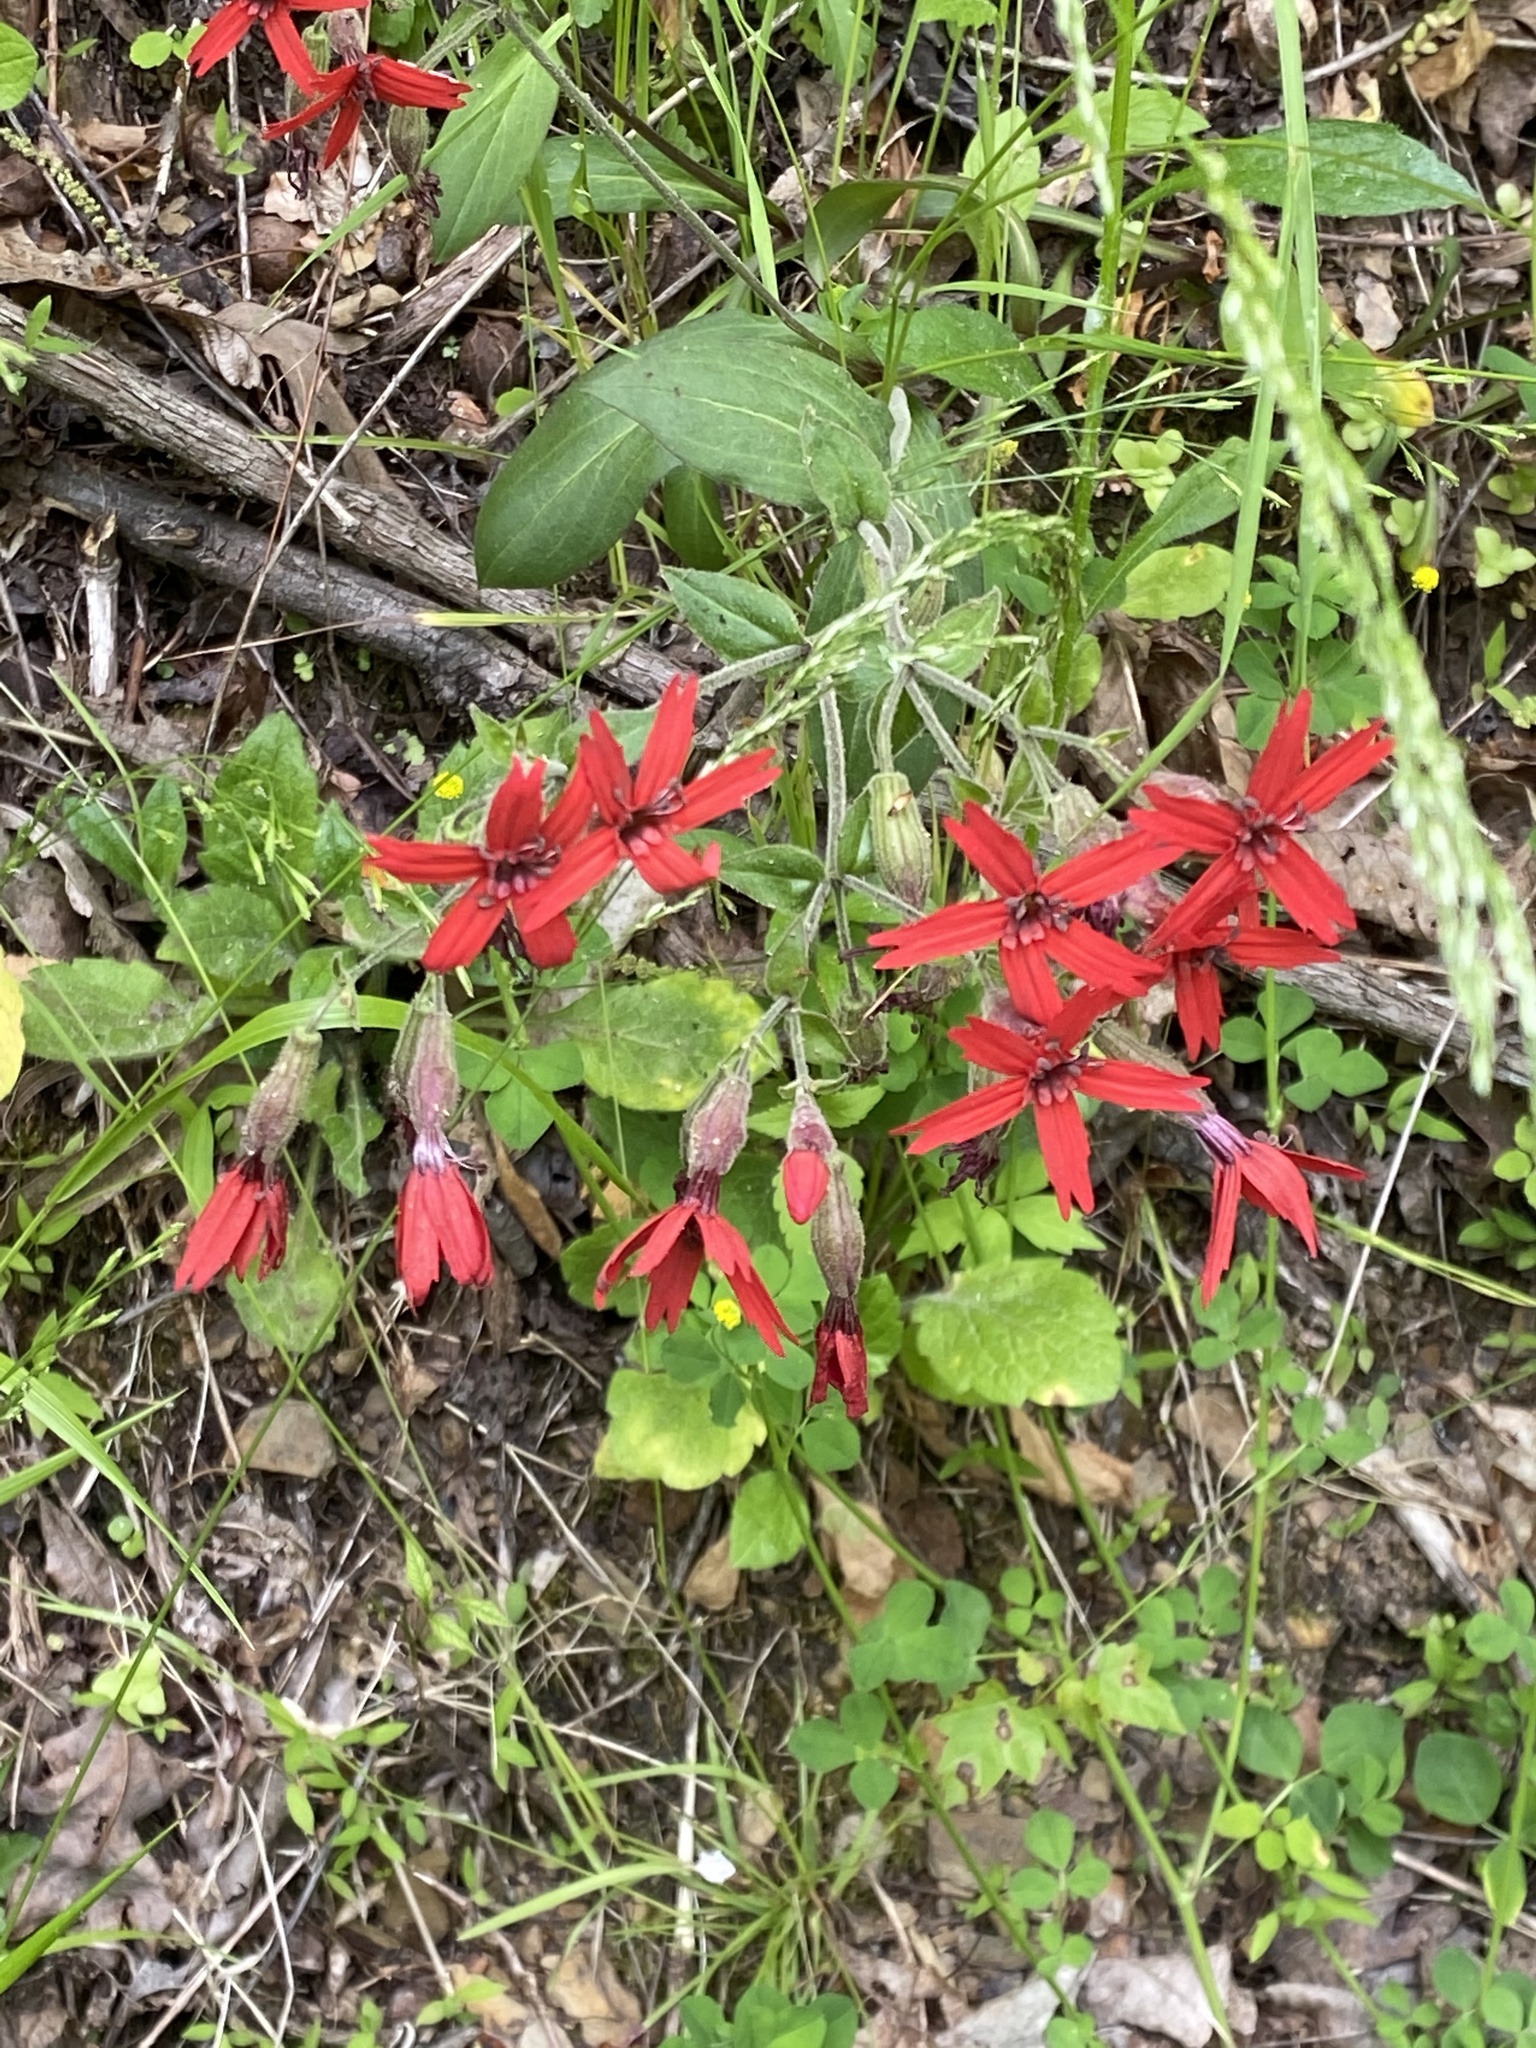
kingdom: Plantae
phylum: Tracheophyta
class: Magnoliopsida
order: Caryophyllales
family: Caryophyllaceae
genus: Silene
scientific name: Silene virginica
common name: Fire-pink
